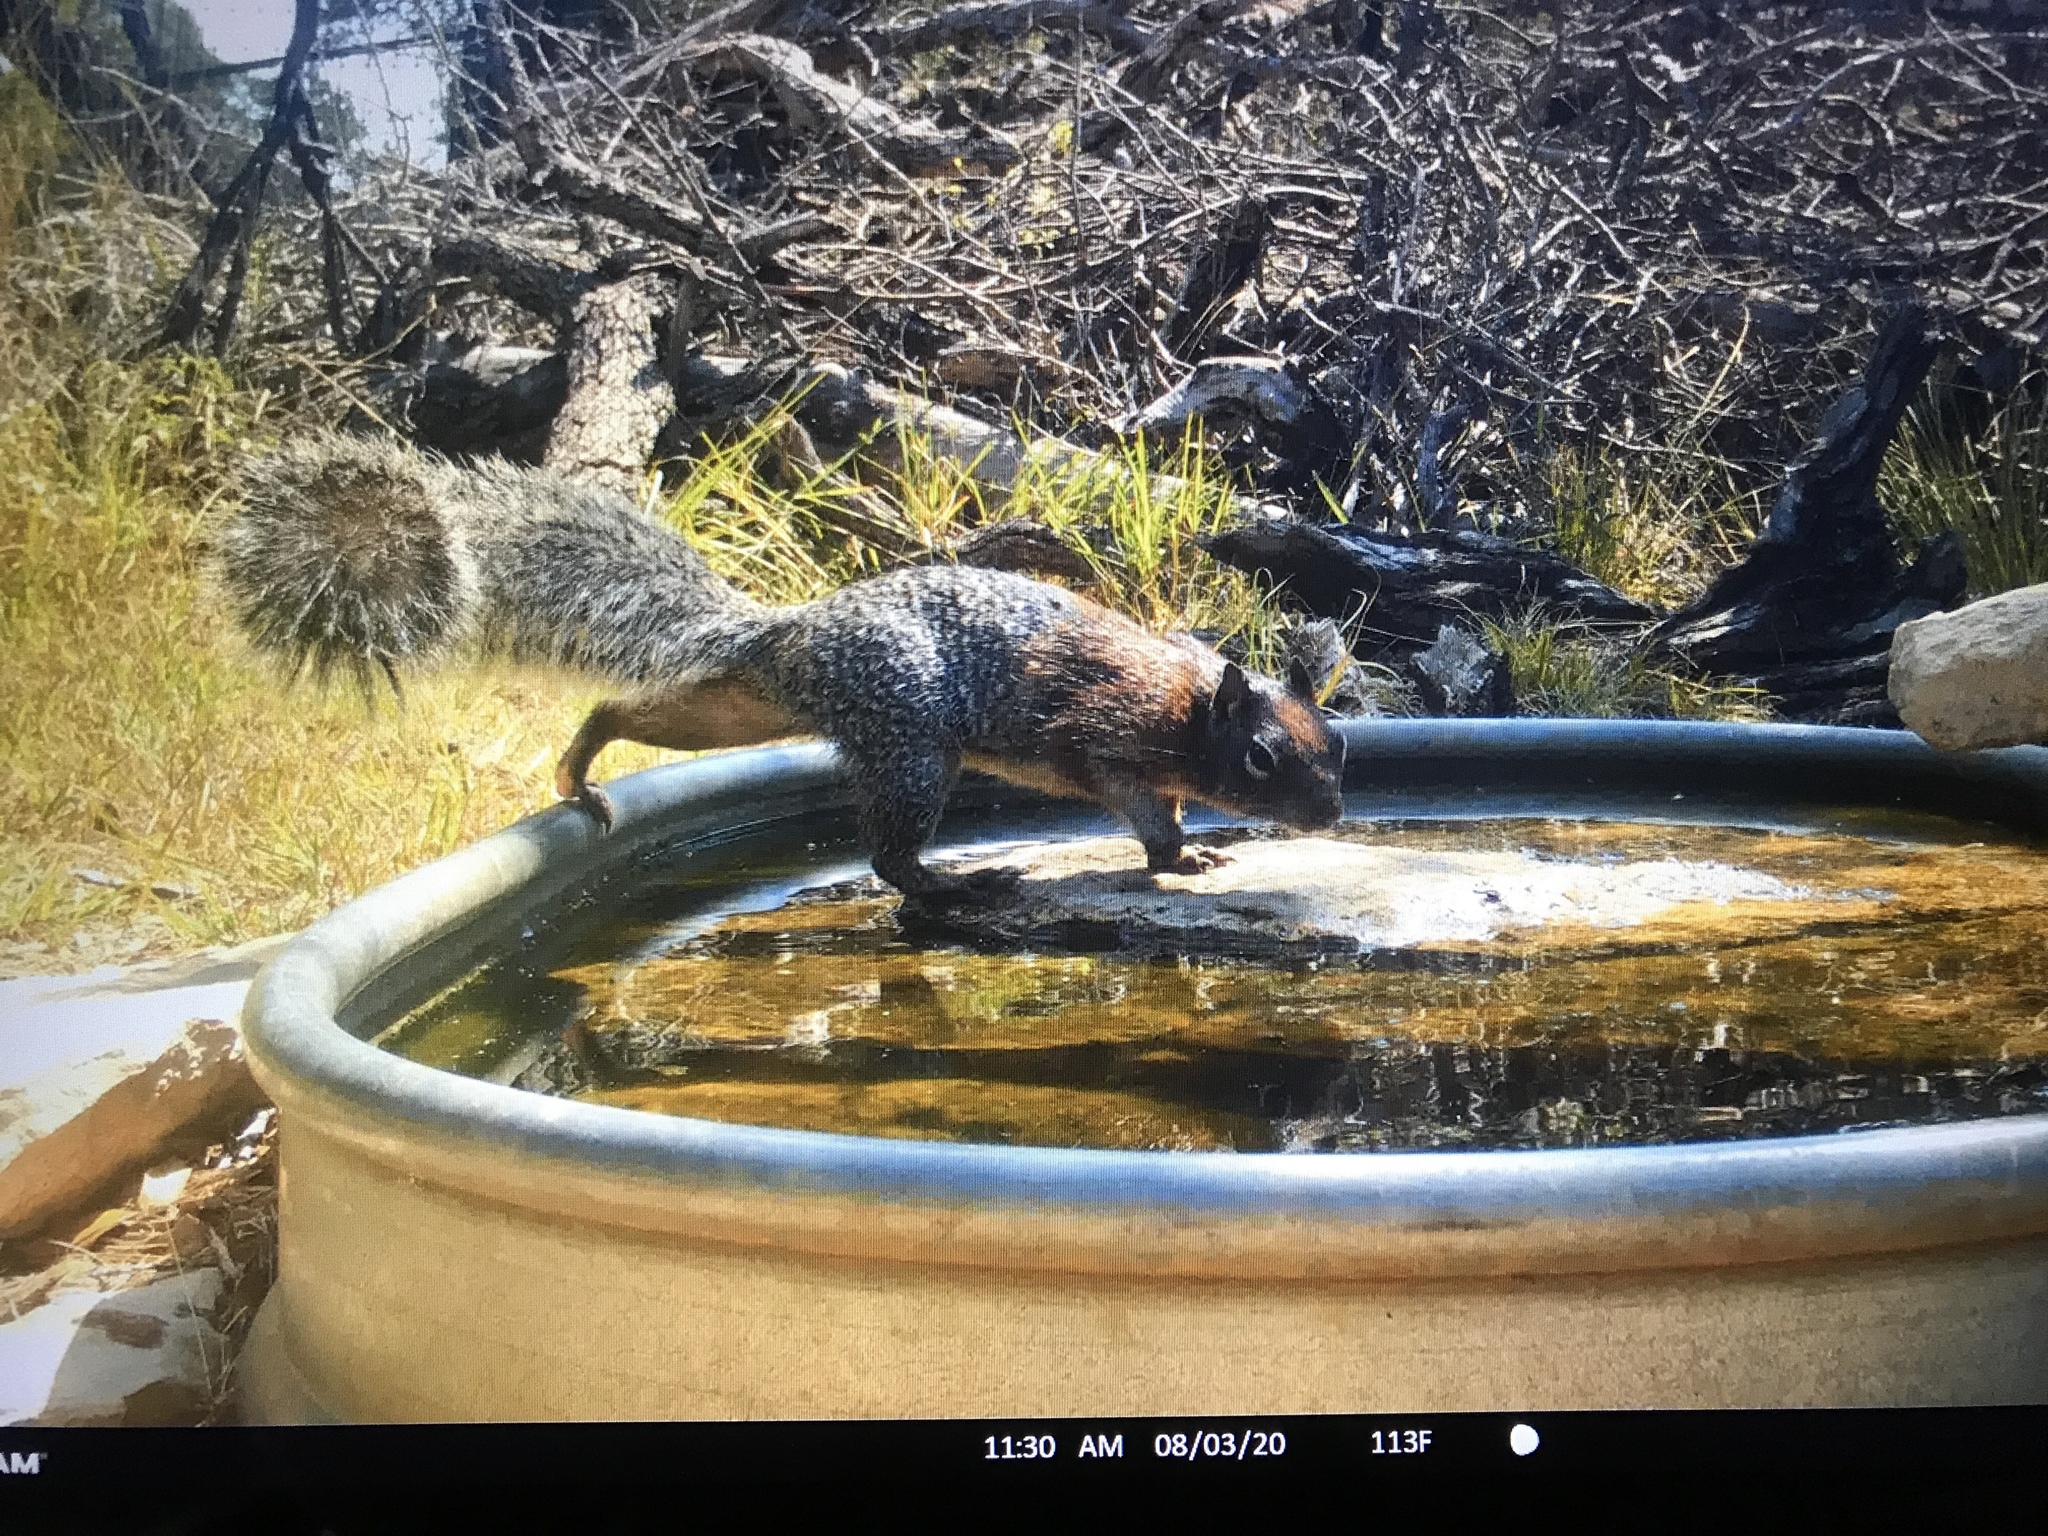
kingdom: Animalia
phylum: Chordata
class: Mammalia
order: Rodentia
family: Sciuridae
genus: Otospermophilus
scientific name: Otospermophilus variegatus
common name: Rock squirrel
